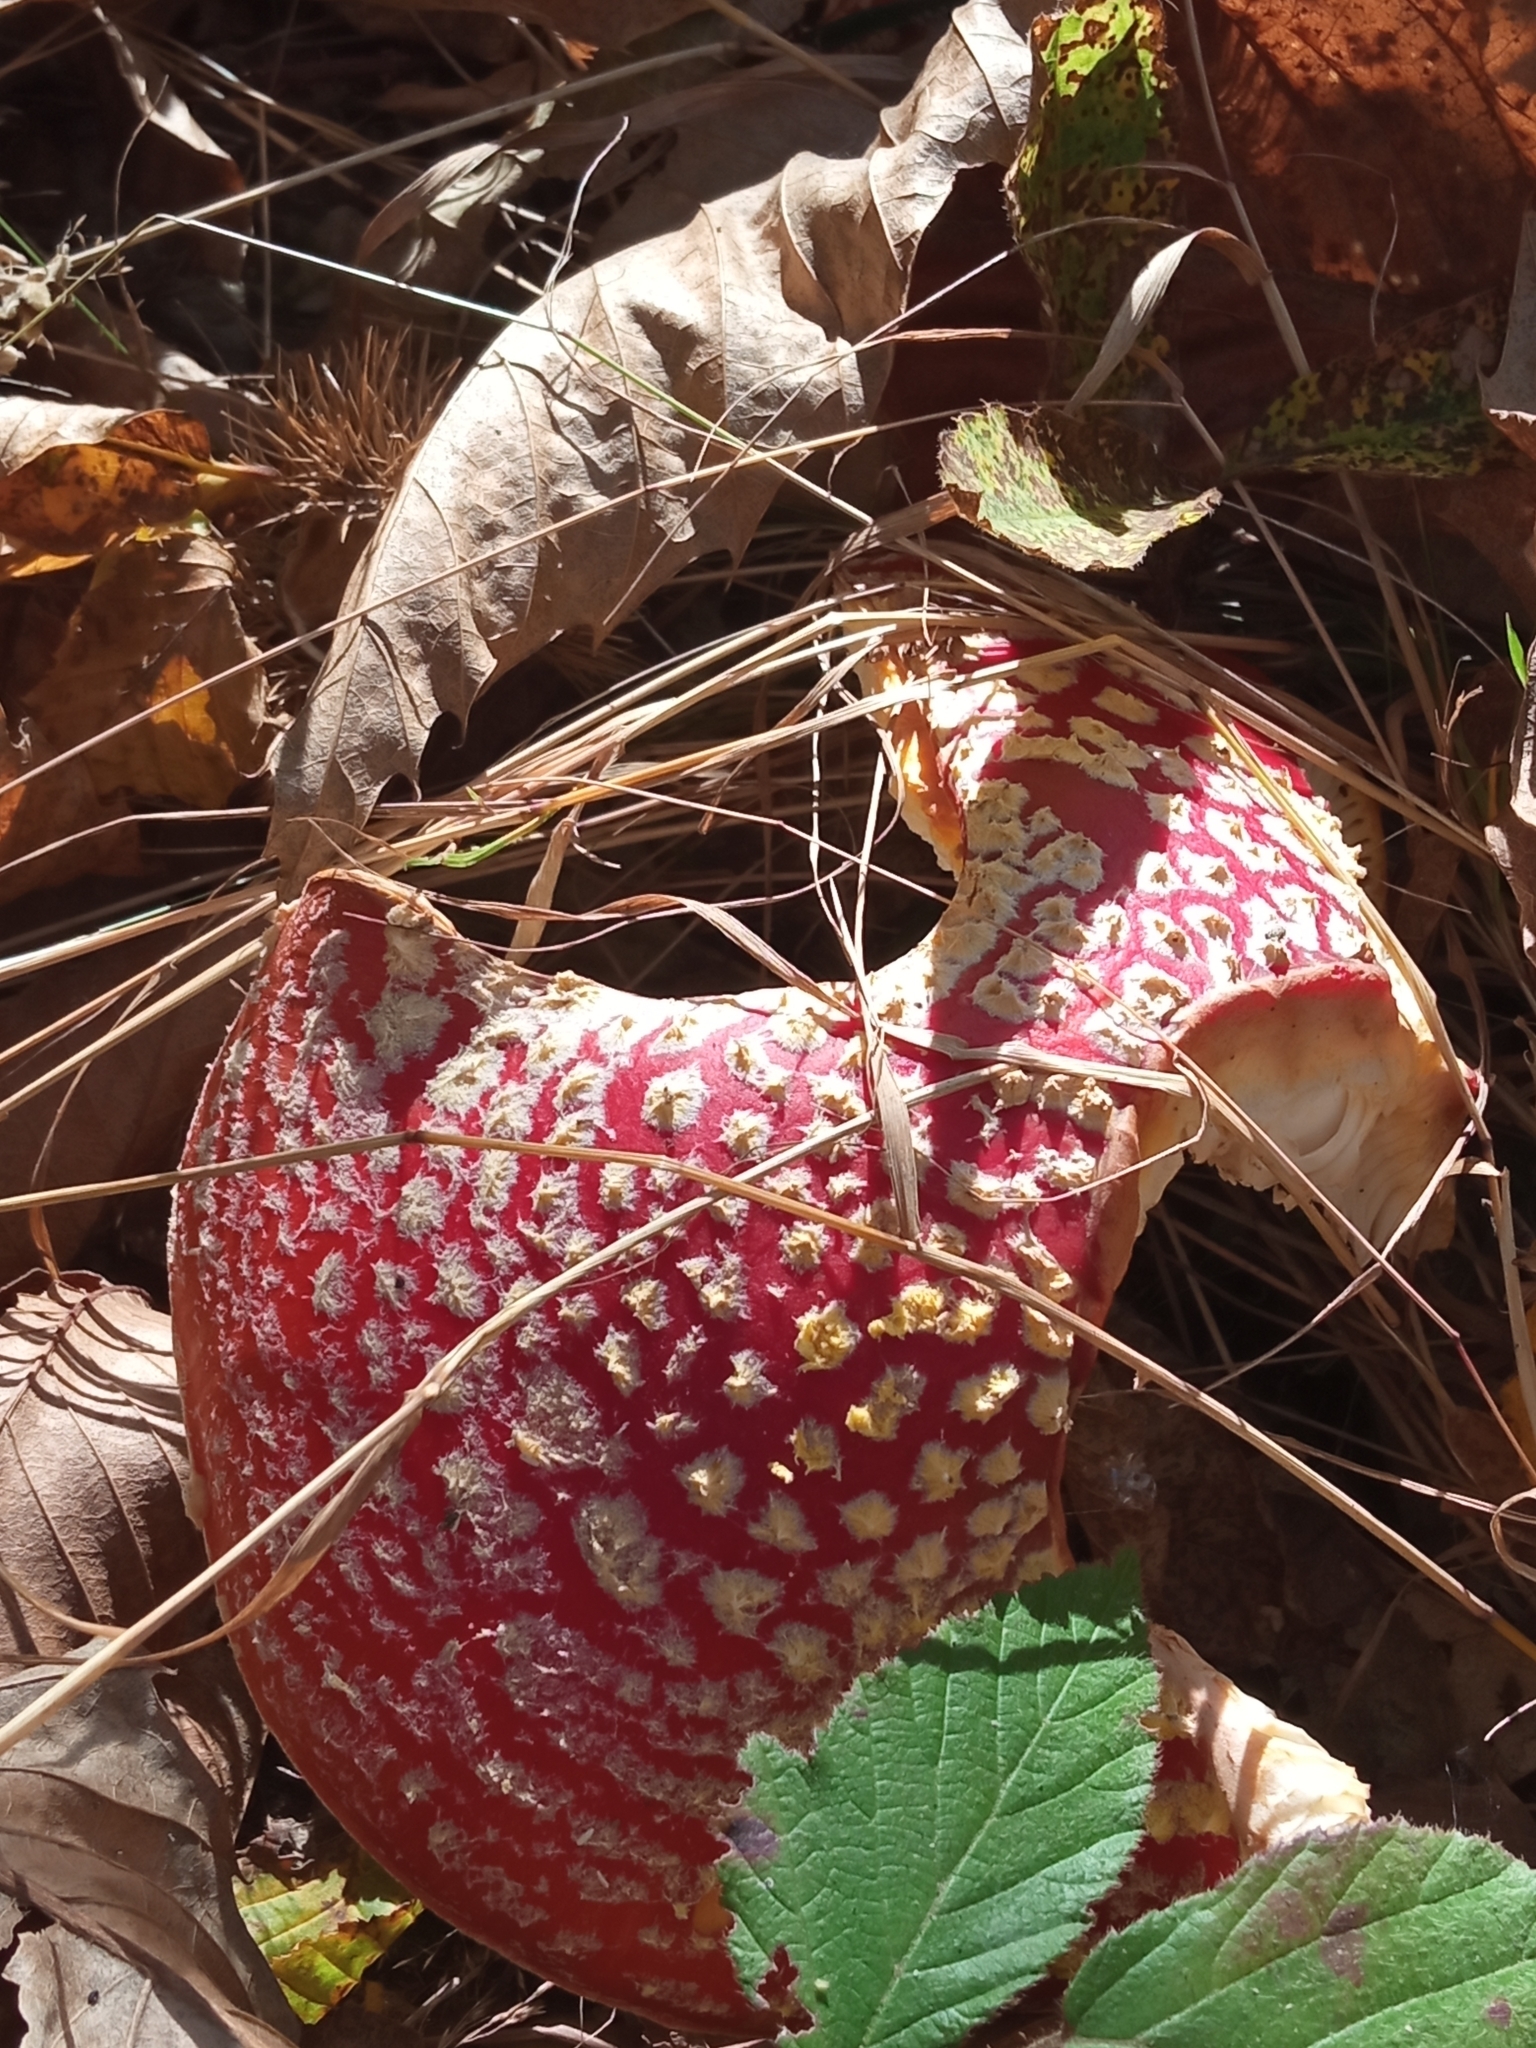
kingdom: Fungi
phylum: Basidiomycota
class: Agaricomycetes
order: Agaricales
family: Amanitaceae
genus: Amanita
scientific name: Amanita muscaria
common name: Fly agaric
